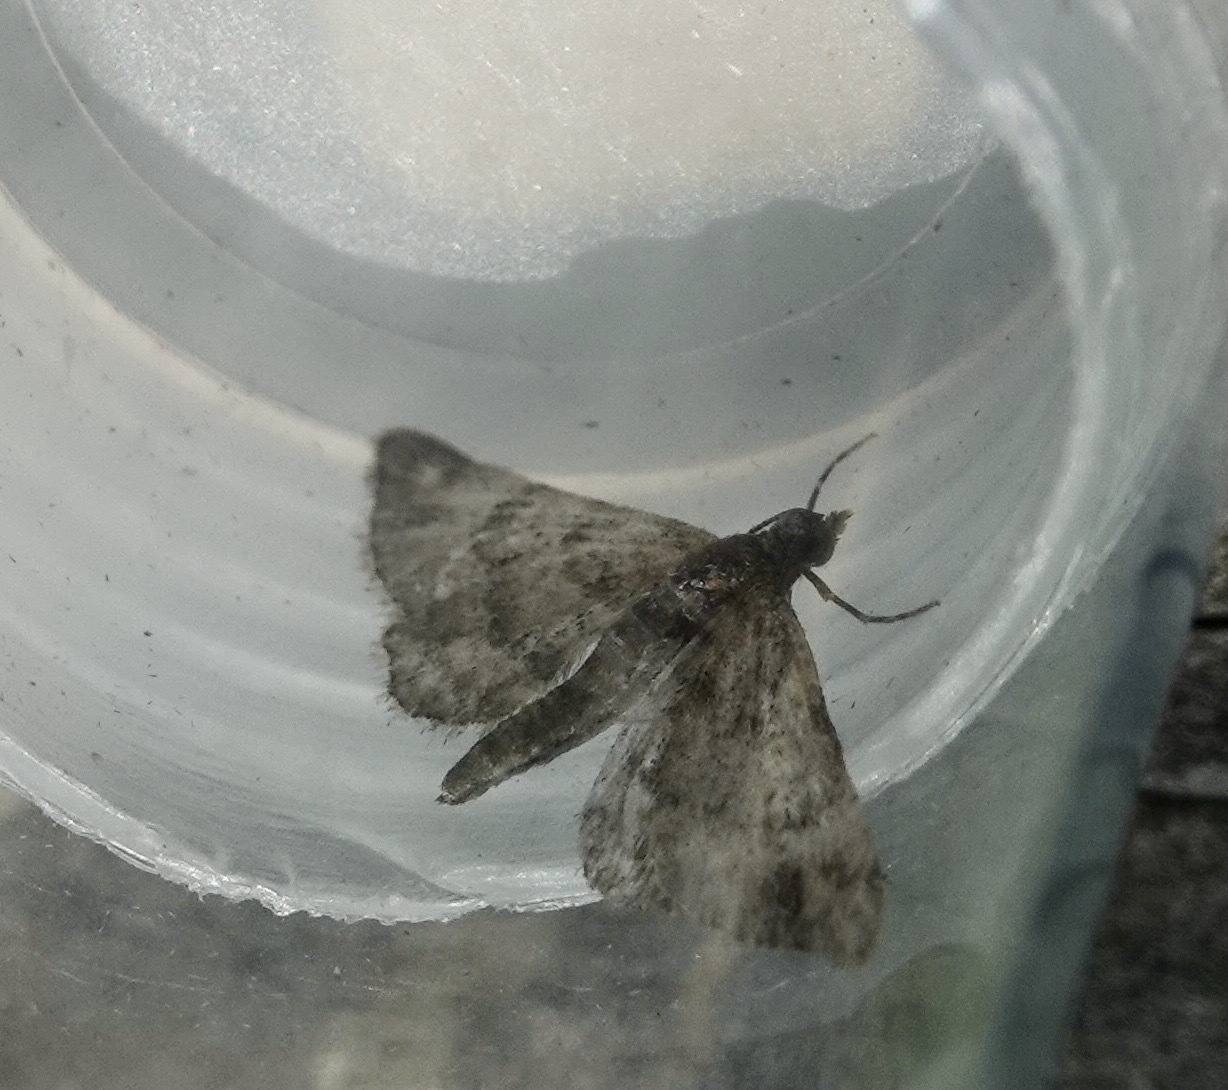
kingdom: Animalia
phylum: Arthropoda
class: Insecta
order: Lepidoptera
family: Geometridae
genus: Gymnoscelis
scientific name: Gymnoscelis rufifasciata
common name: Double-striped pug
